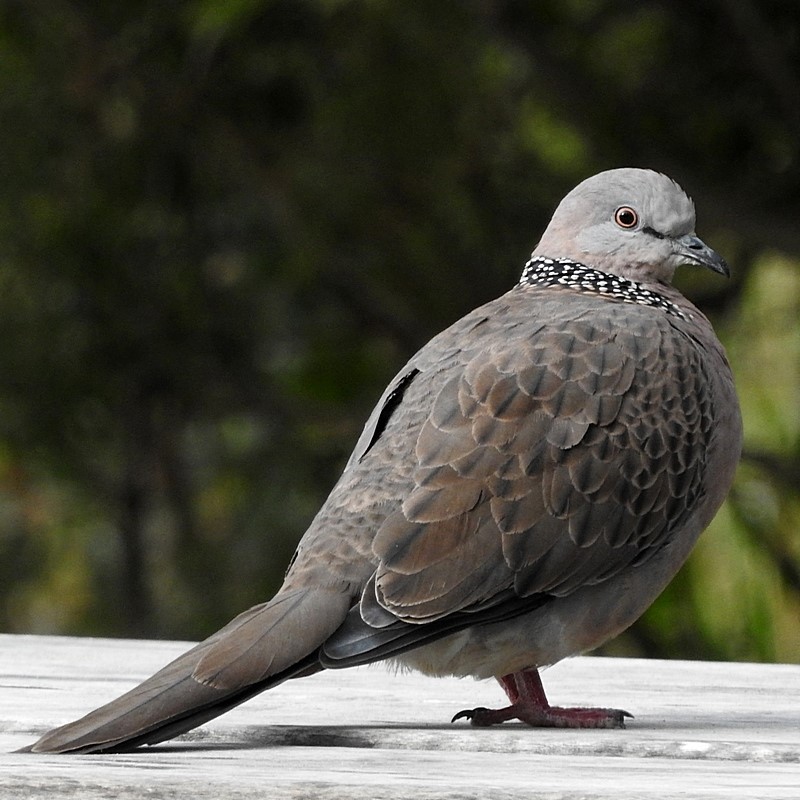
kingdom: Animalia
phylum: Chordata
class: Aves
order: Columbiformes
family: Columbidae
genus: Spilopelia
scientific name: Spilopelia chinensis
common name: Spotted dove
